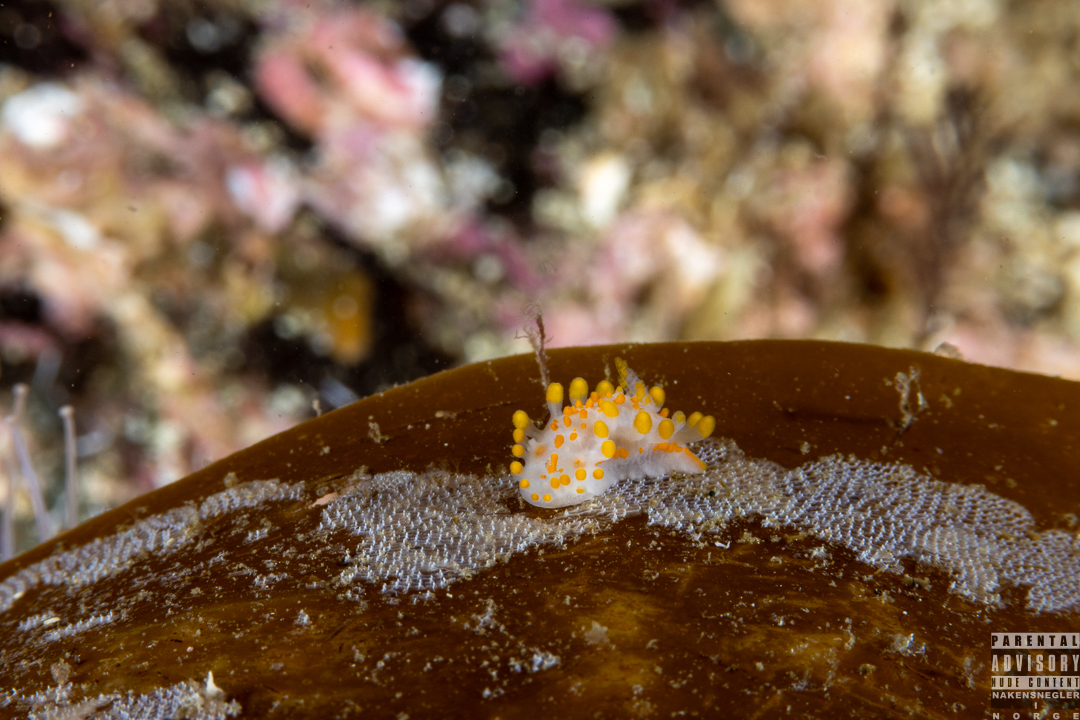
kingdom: Animalia
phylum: Mollusca
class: Gastropoda
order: Nudibranchia
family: Polyceridae
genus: Limacia
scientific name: Limacia clavigera
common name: Orange-clubbed sea slug
